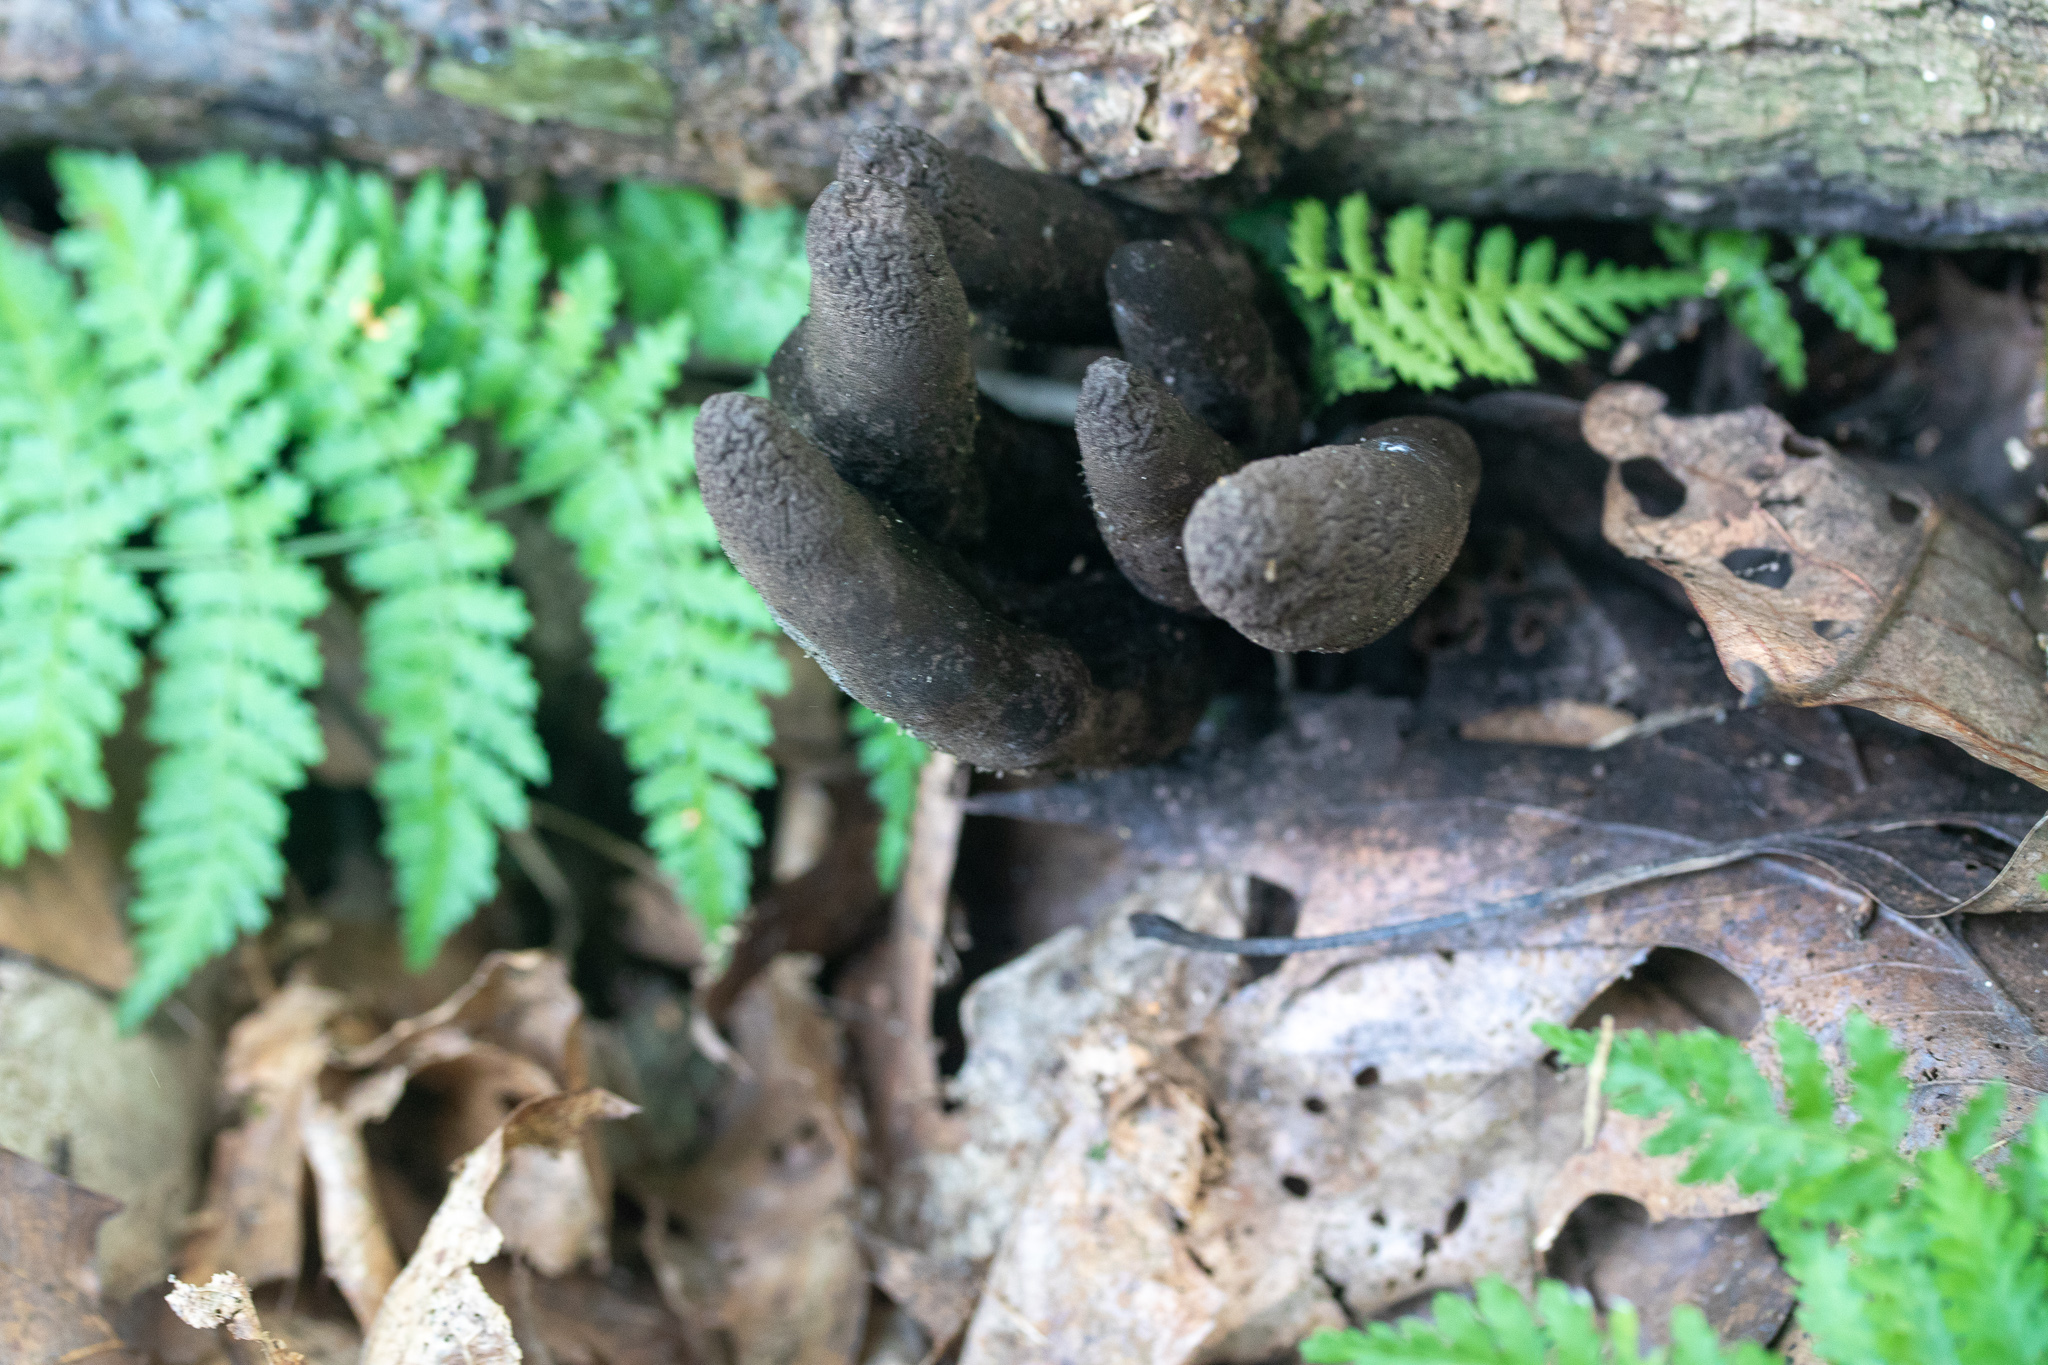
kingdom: Fungi
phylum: Ascomycota
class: Sordariomycetes
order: Xylariales
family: Xylariaceae
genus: Xylaria
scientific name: Xylaria polymorpha
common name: Dead man's fingers
